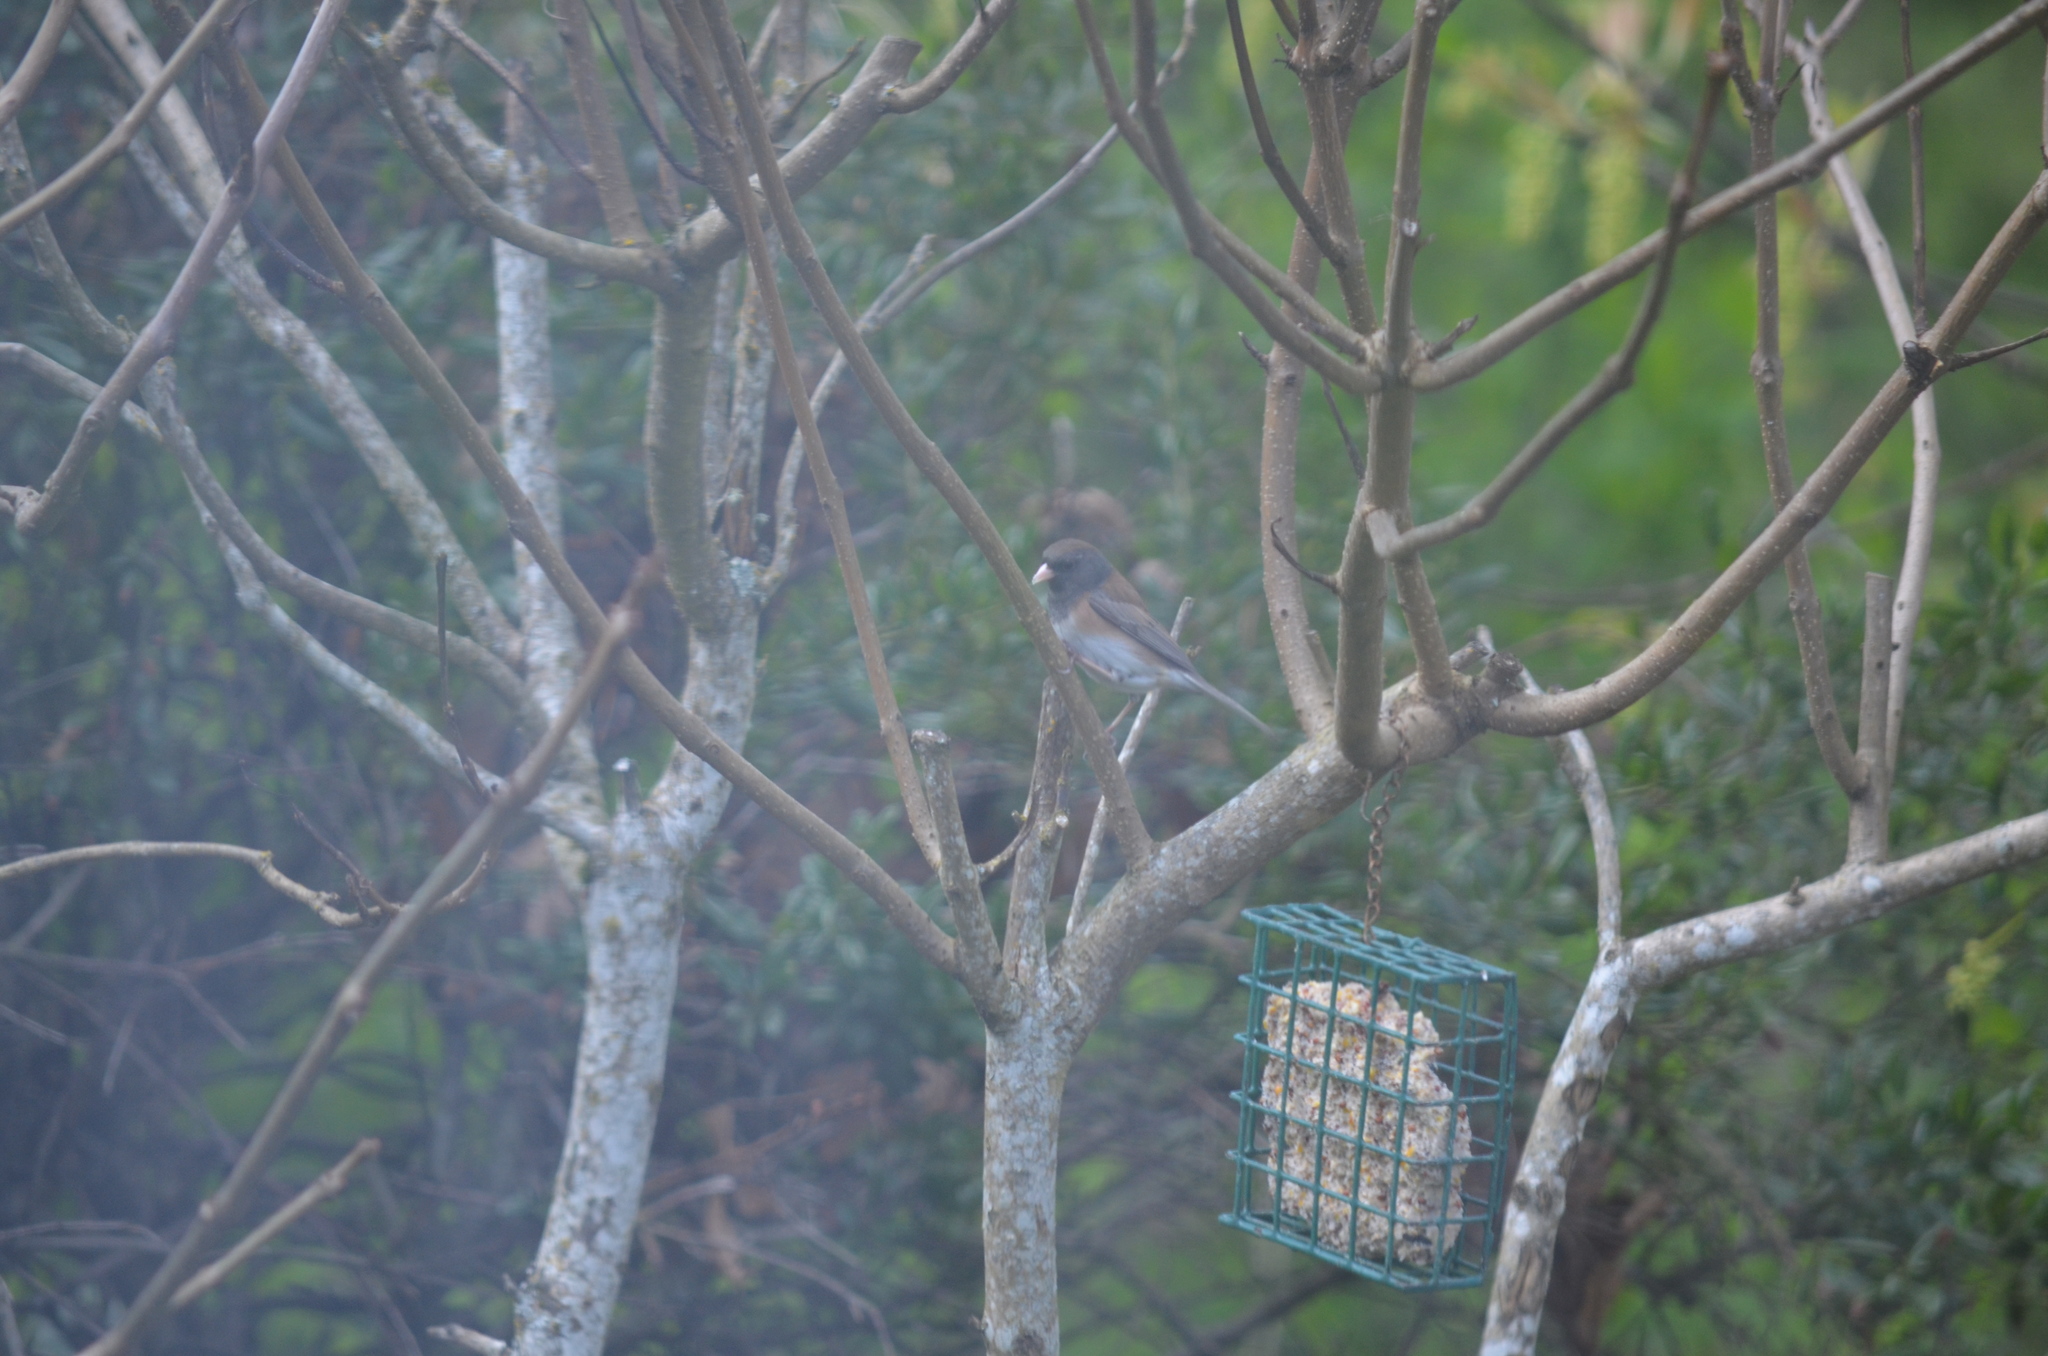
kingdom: Animalia
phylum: Chordata
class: Aves
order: Passeriformes
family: Passerellidae
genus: Junco
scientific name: Junco hyemalis
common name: Dark-eyed junco
